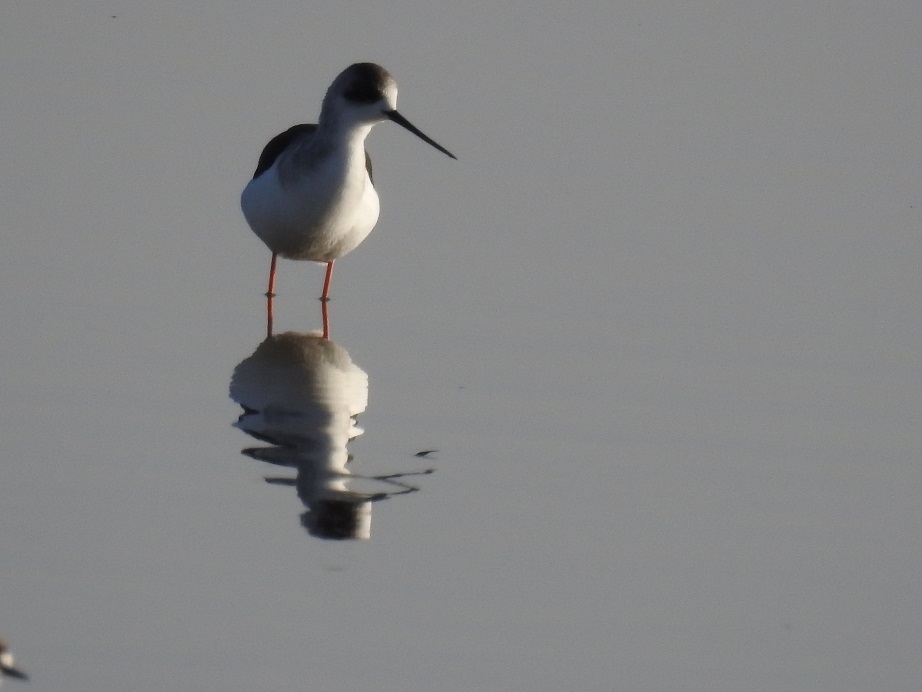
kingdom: Animalia
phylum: Chordata
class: Aves
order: Charadriiformes
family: Recurvirostridae
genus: Himantopus
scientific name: Himantopus himantopus
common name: Black-winged stilt
